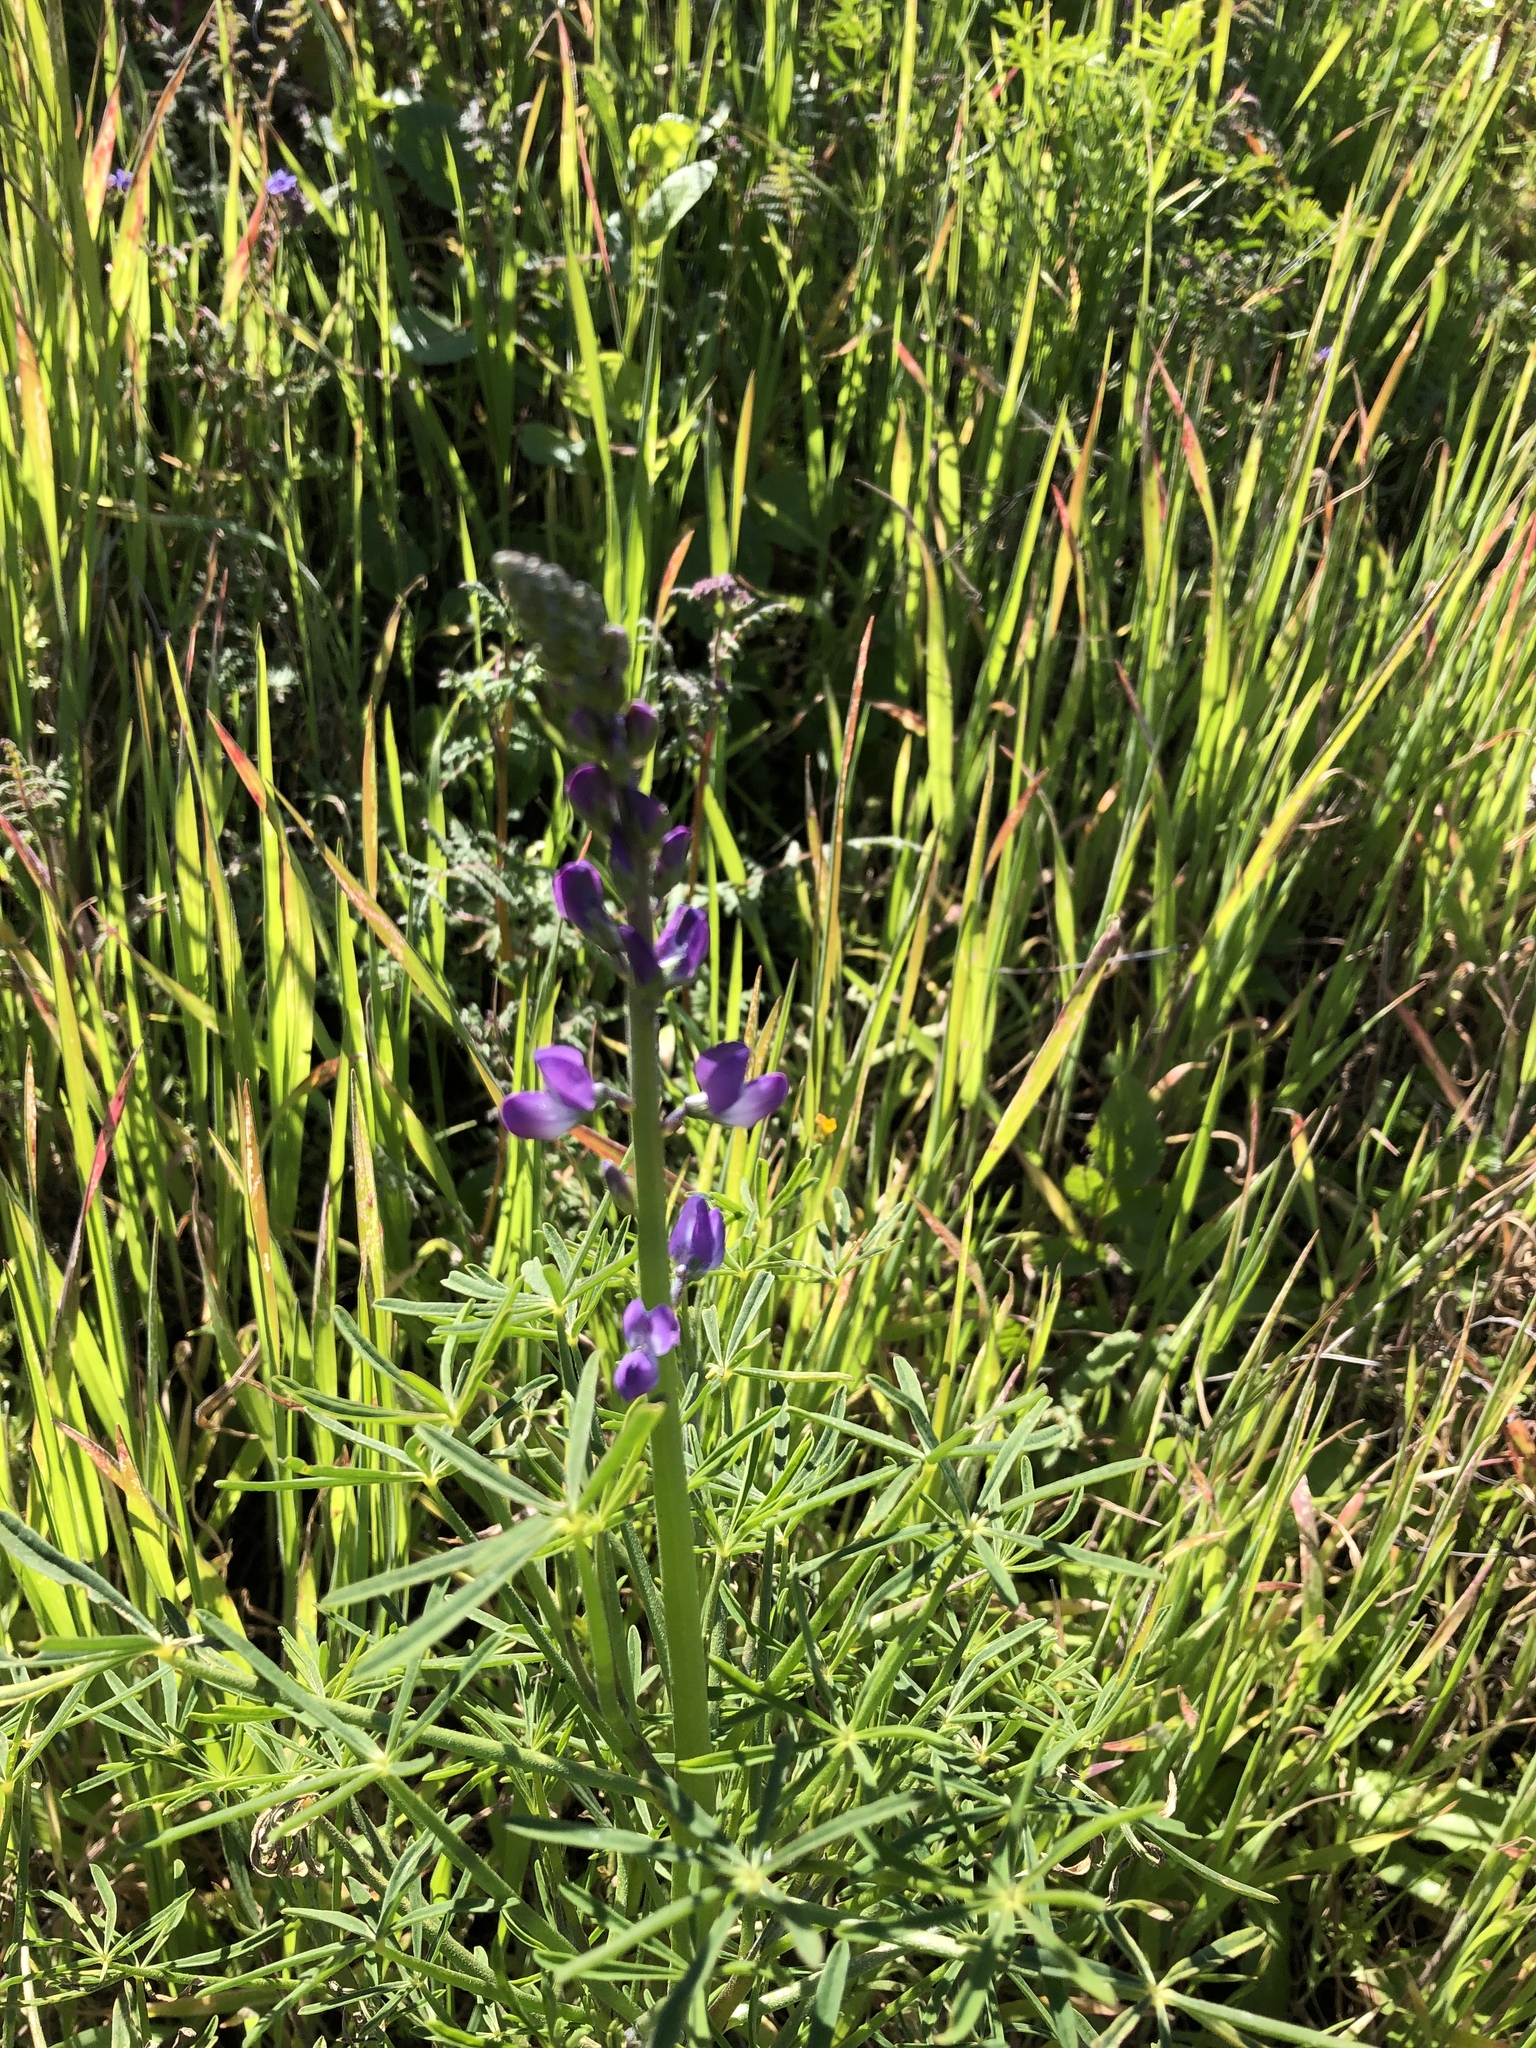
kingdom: Plantae
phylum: Tracheophyta
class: Magnoliopsida
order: Fabales
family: Fabaceae
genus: Lupinus
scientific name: Lupinus truncatus
